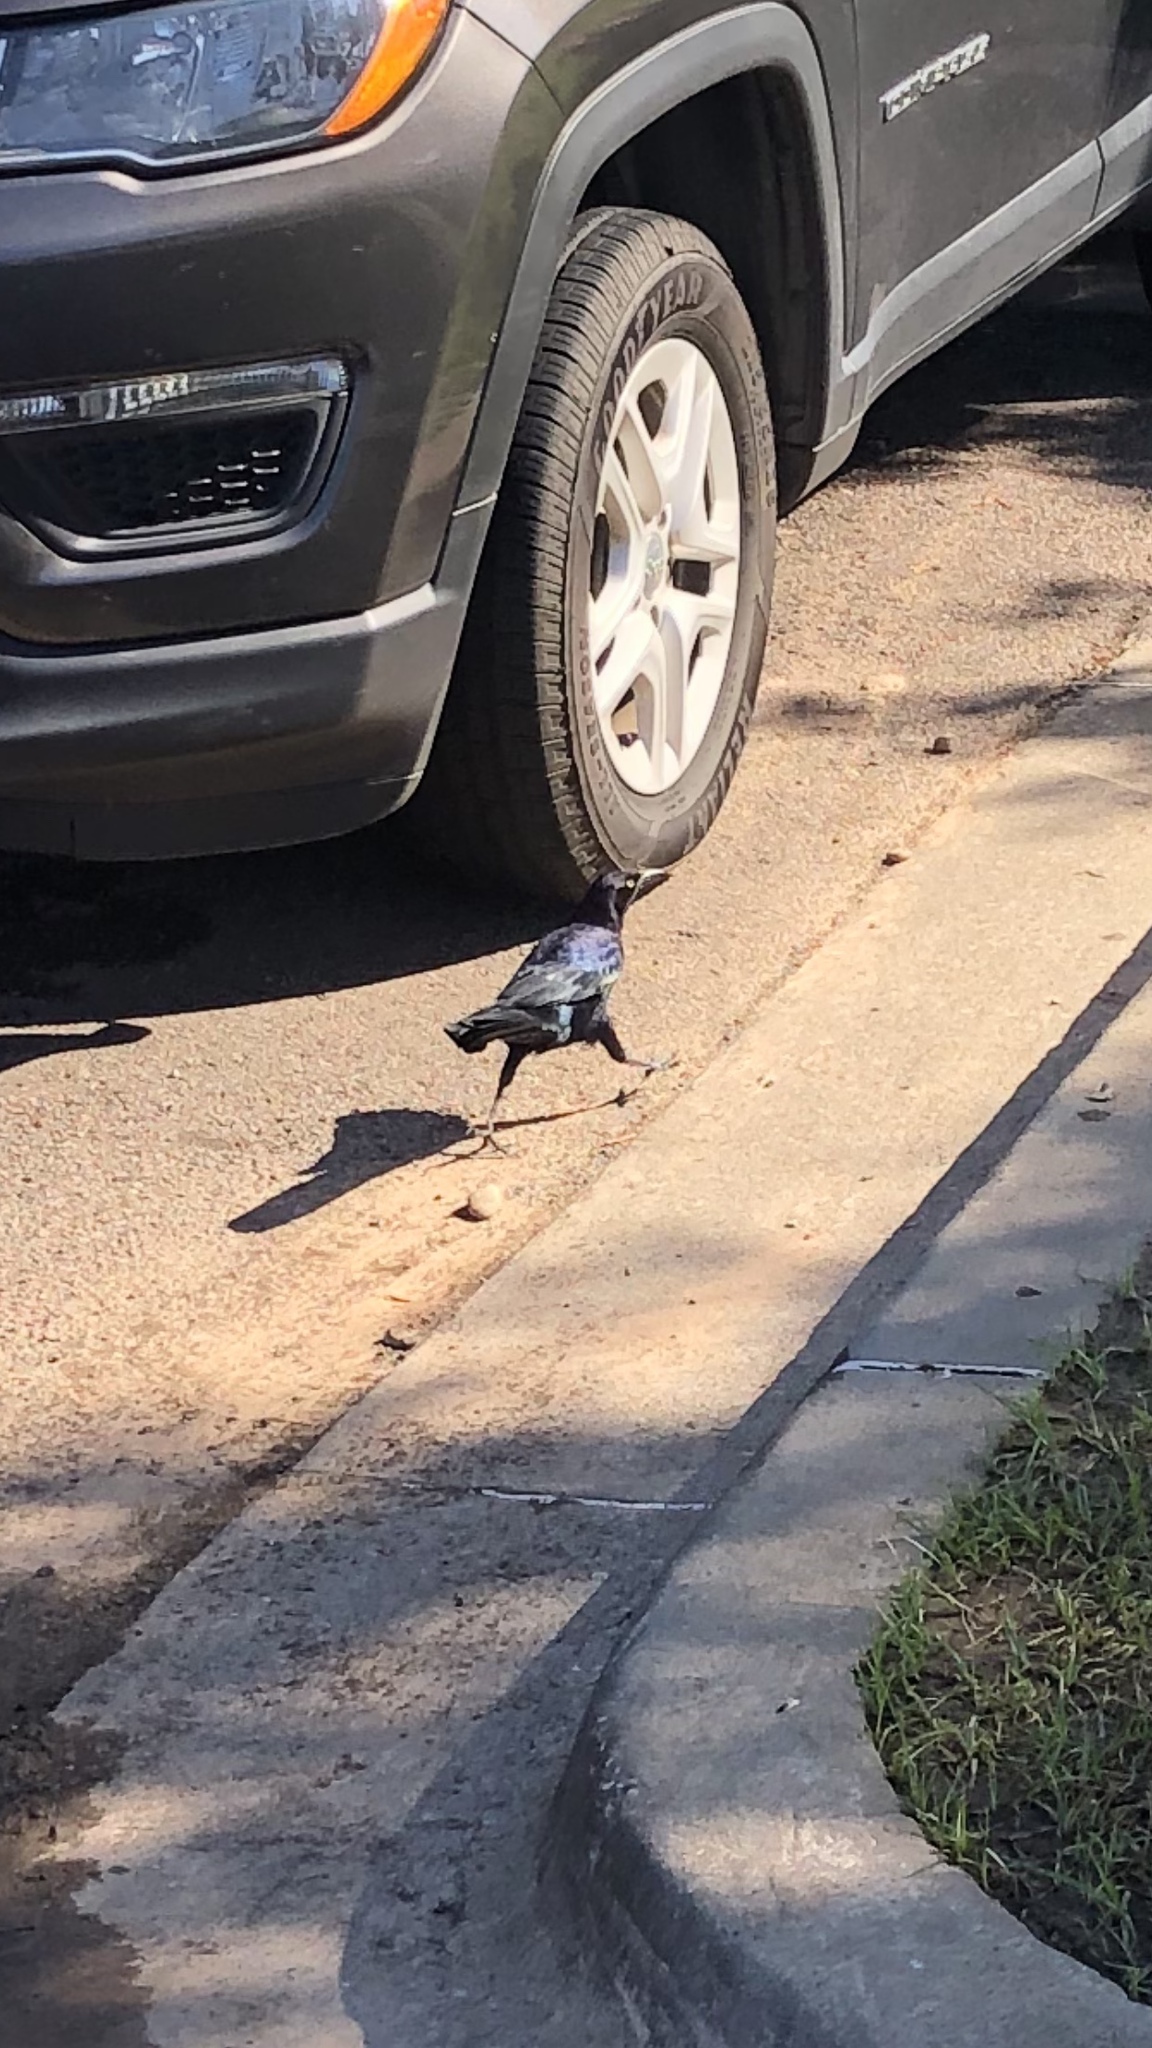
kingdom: Animalia
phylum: Chordata
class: Aves
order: Passeriformes
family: Icteridae
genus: Quiscalus
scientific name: Quiscalus mexicanus
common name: Great-tailed grackle
